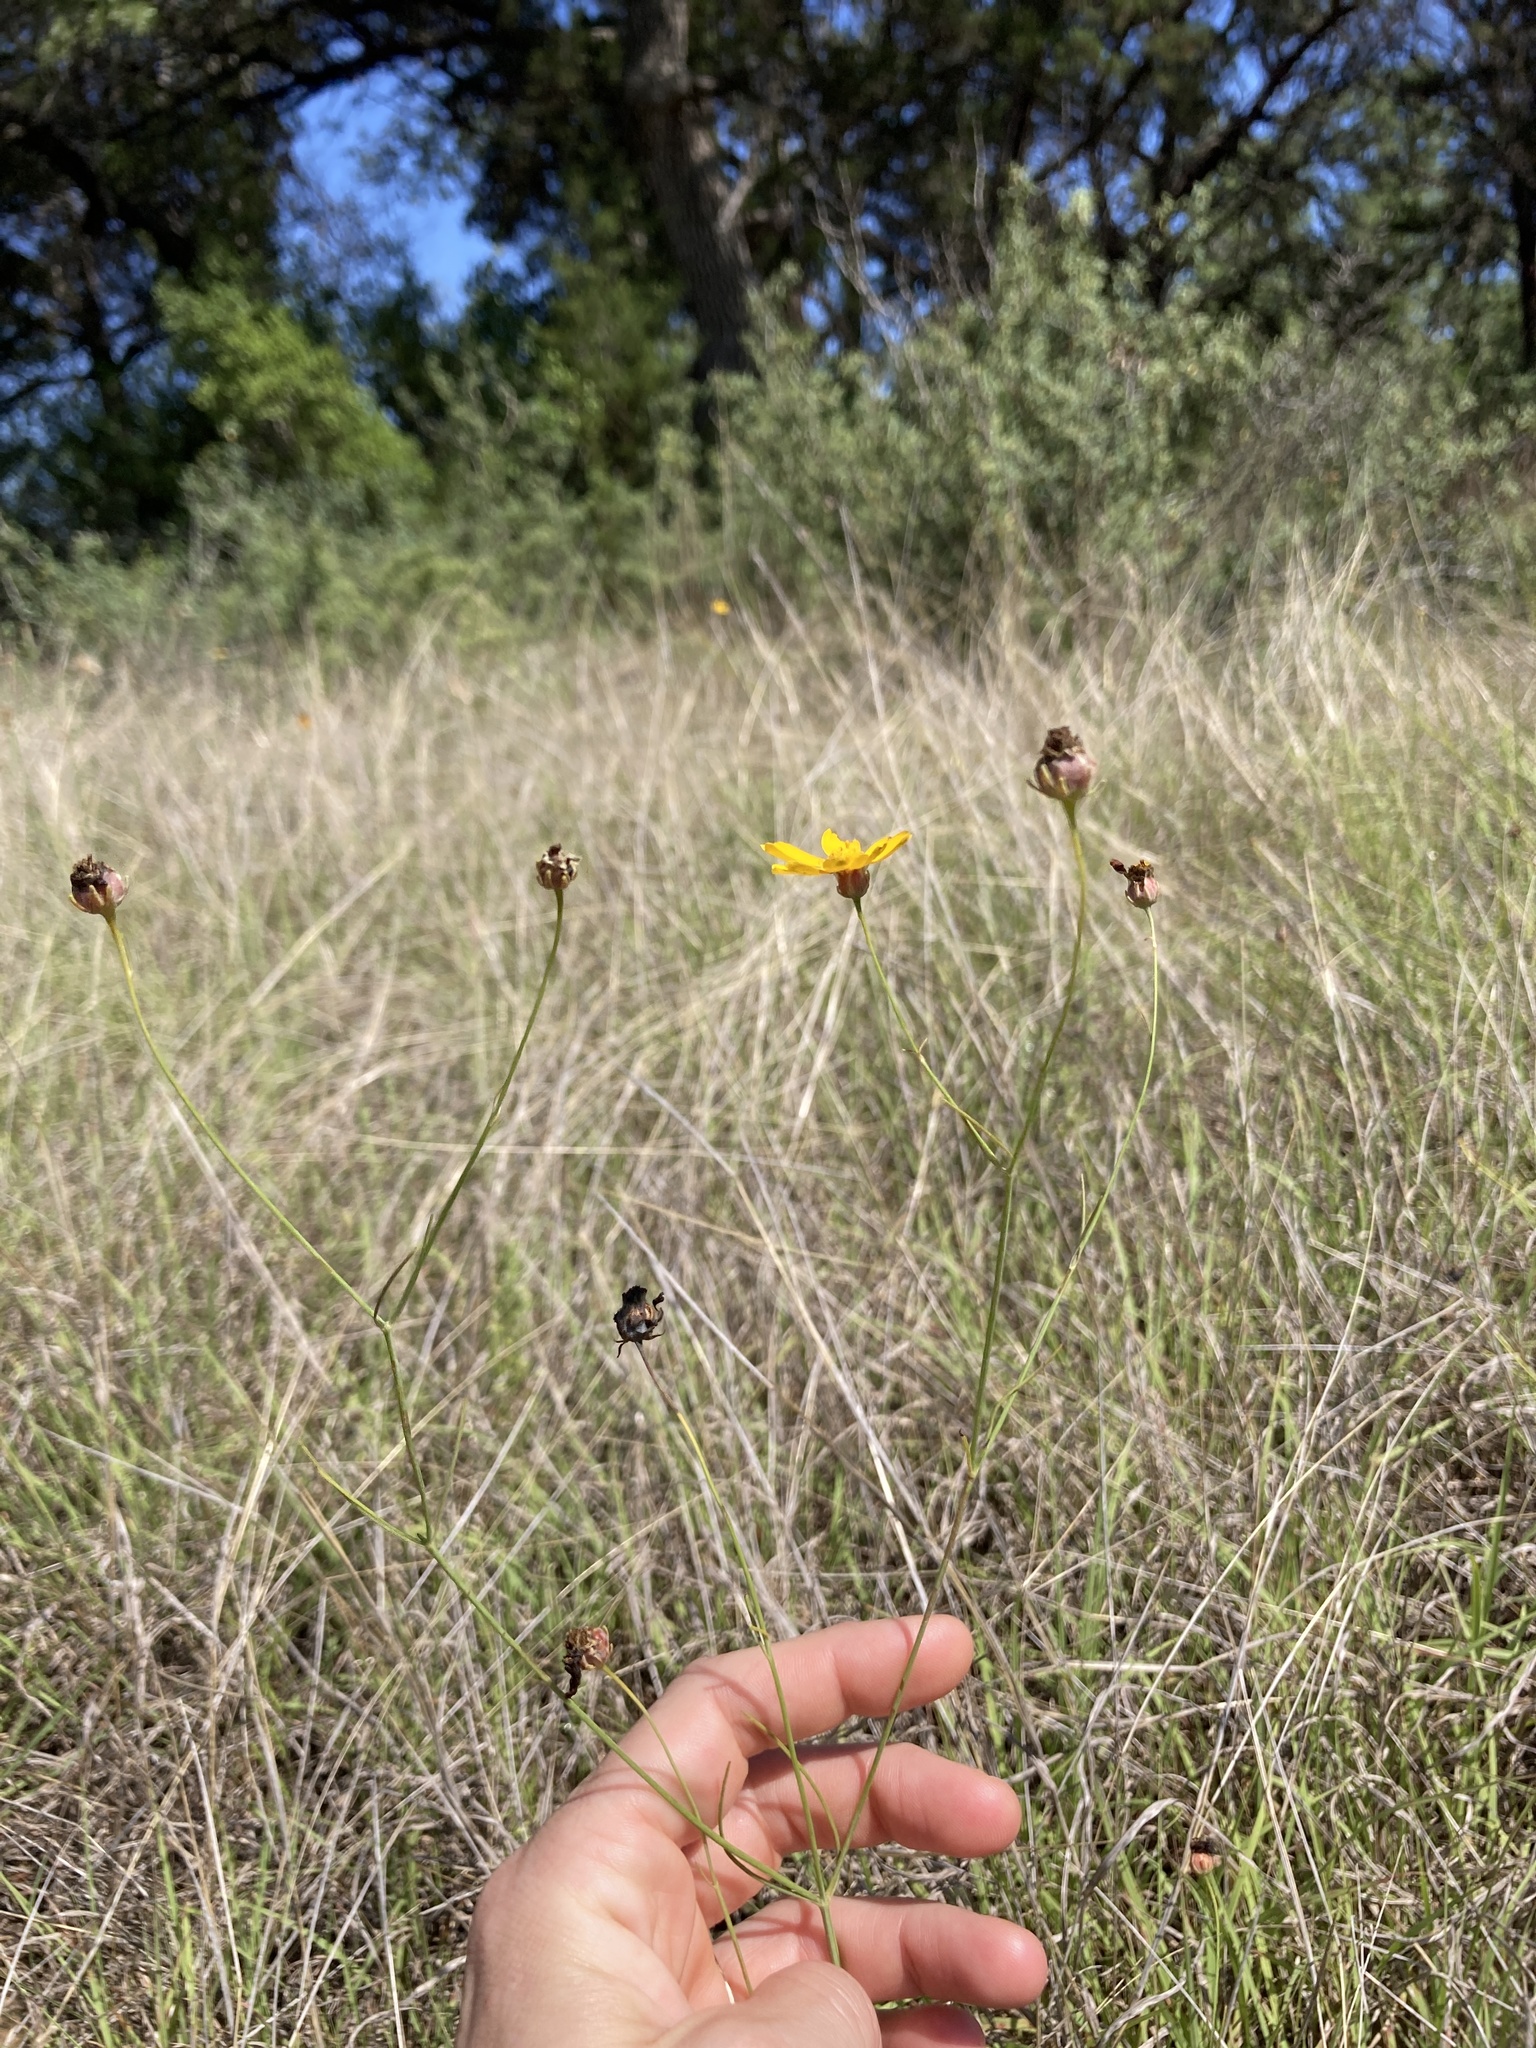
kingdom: Plantae
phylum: Tracheophyta
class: Magnoliopsida
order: Asterales
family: Asteraceae
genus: Thelesperma
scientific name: Thelesperma simplicifolium
